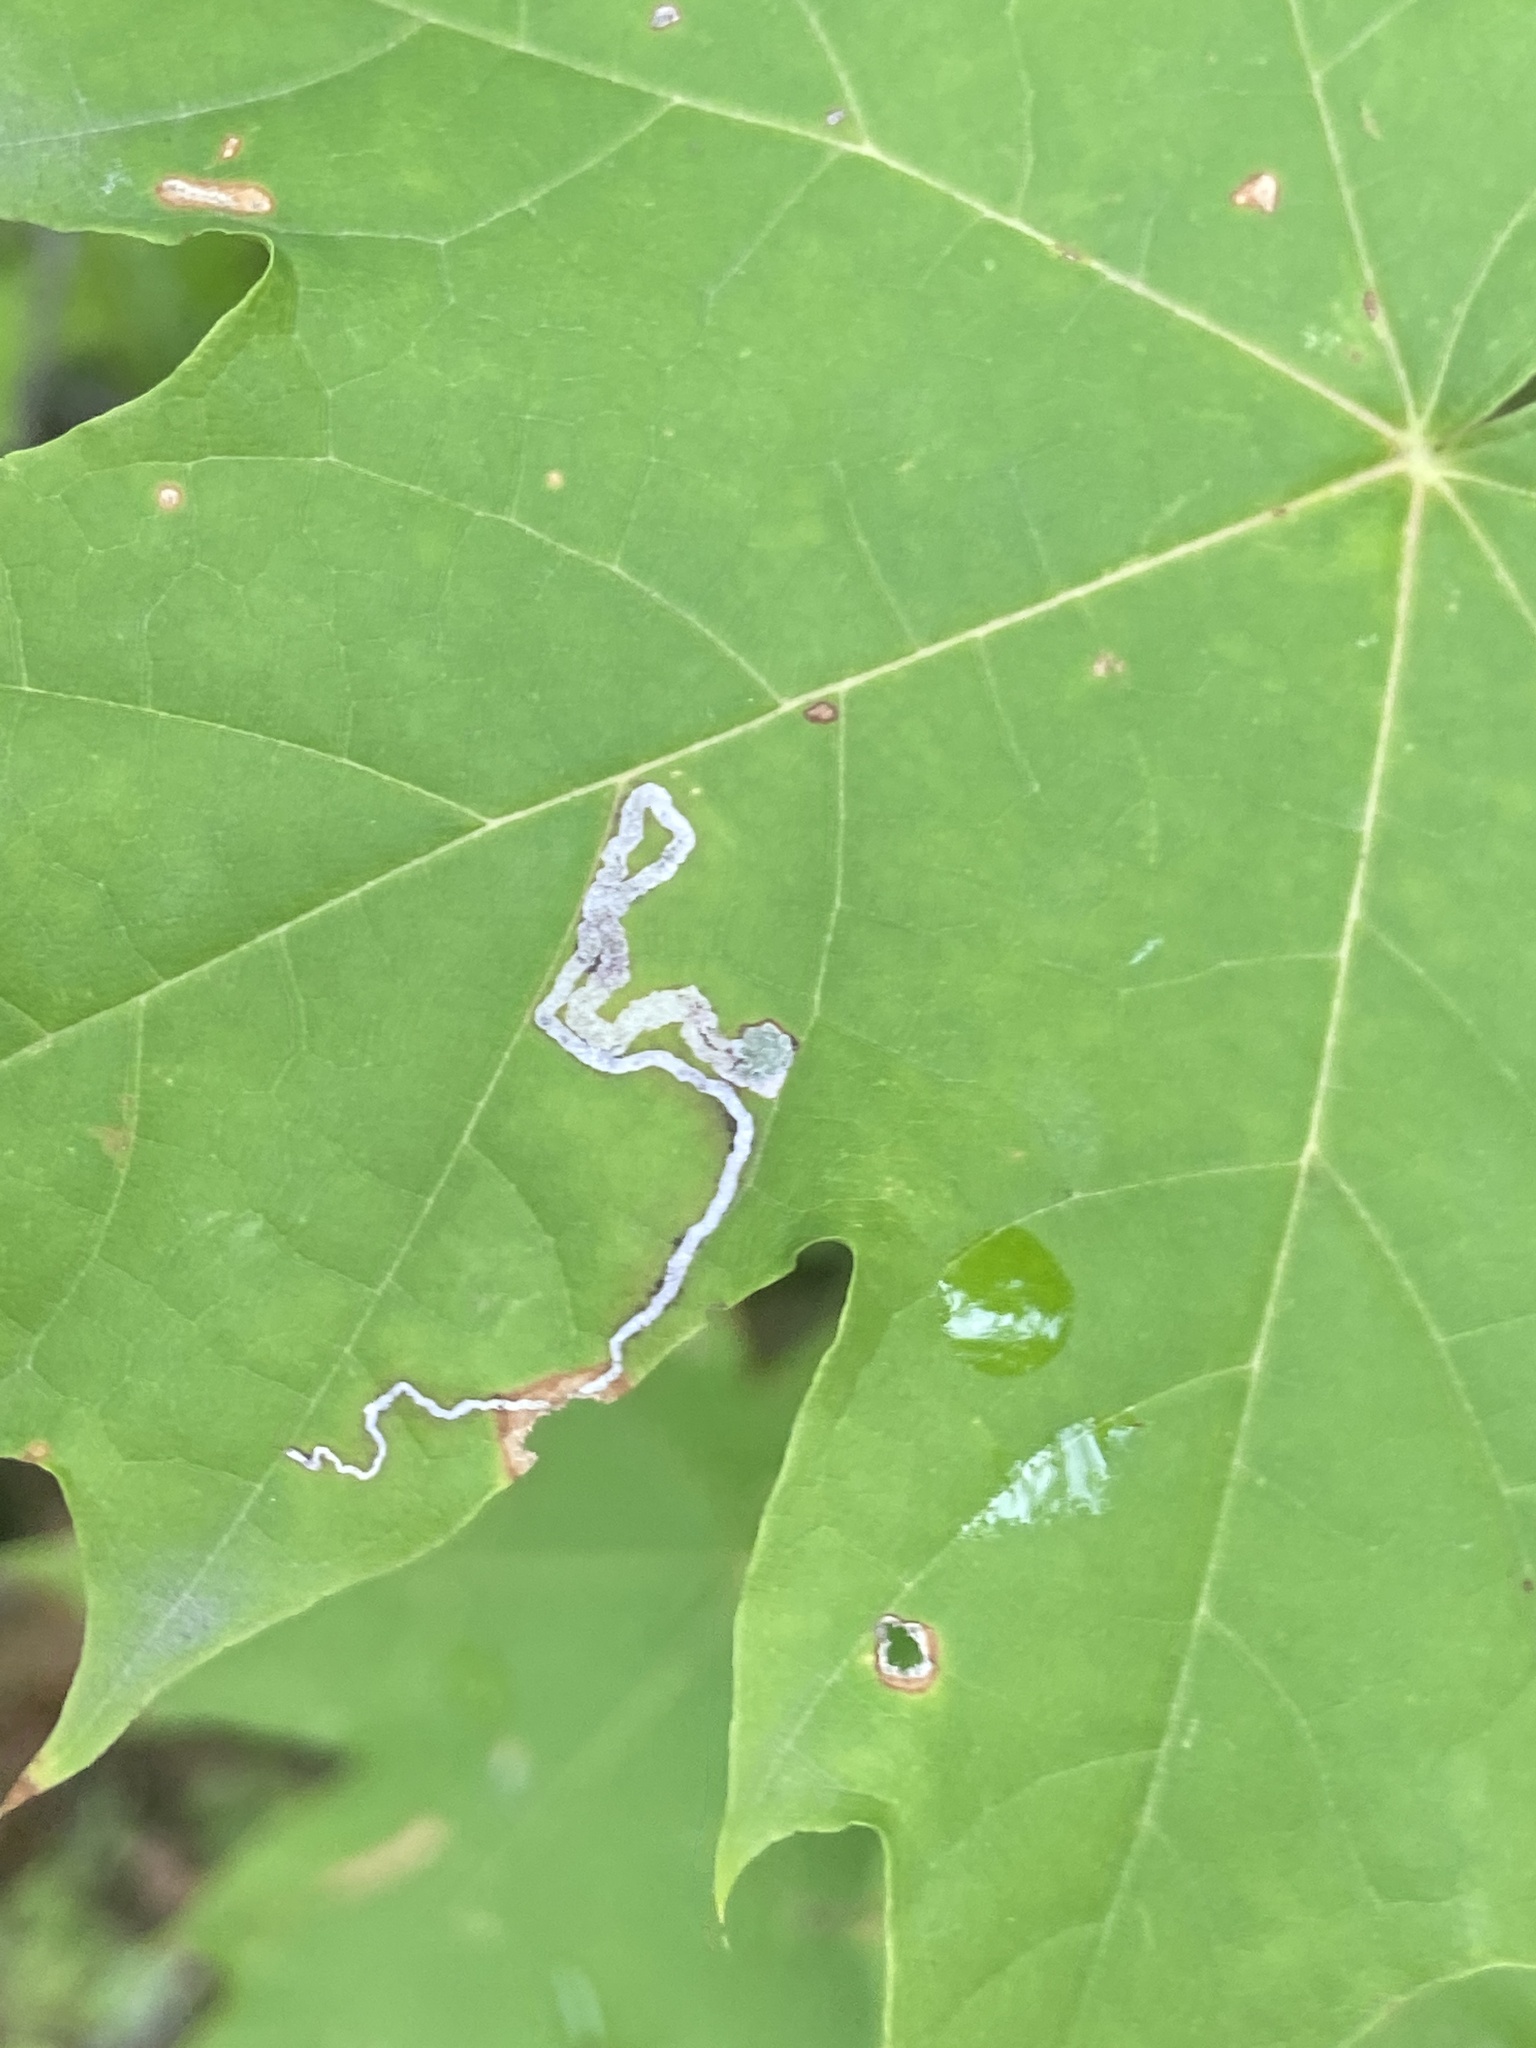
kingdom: Animalia
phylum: Arthropoda
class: Insecta
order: Lepidoptera
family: Nepticulidae
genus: Stigmella
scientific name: Stigmella aceris
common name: Scarce maple pigmy
